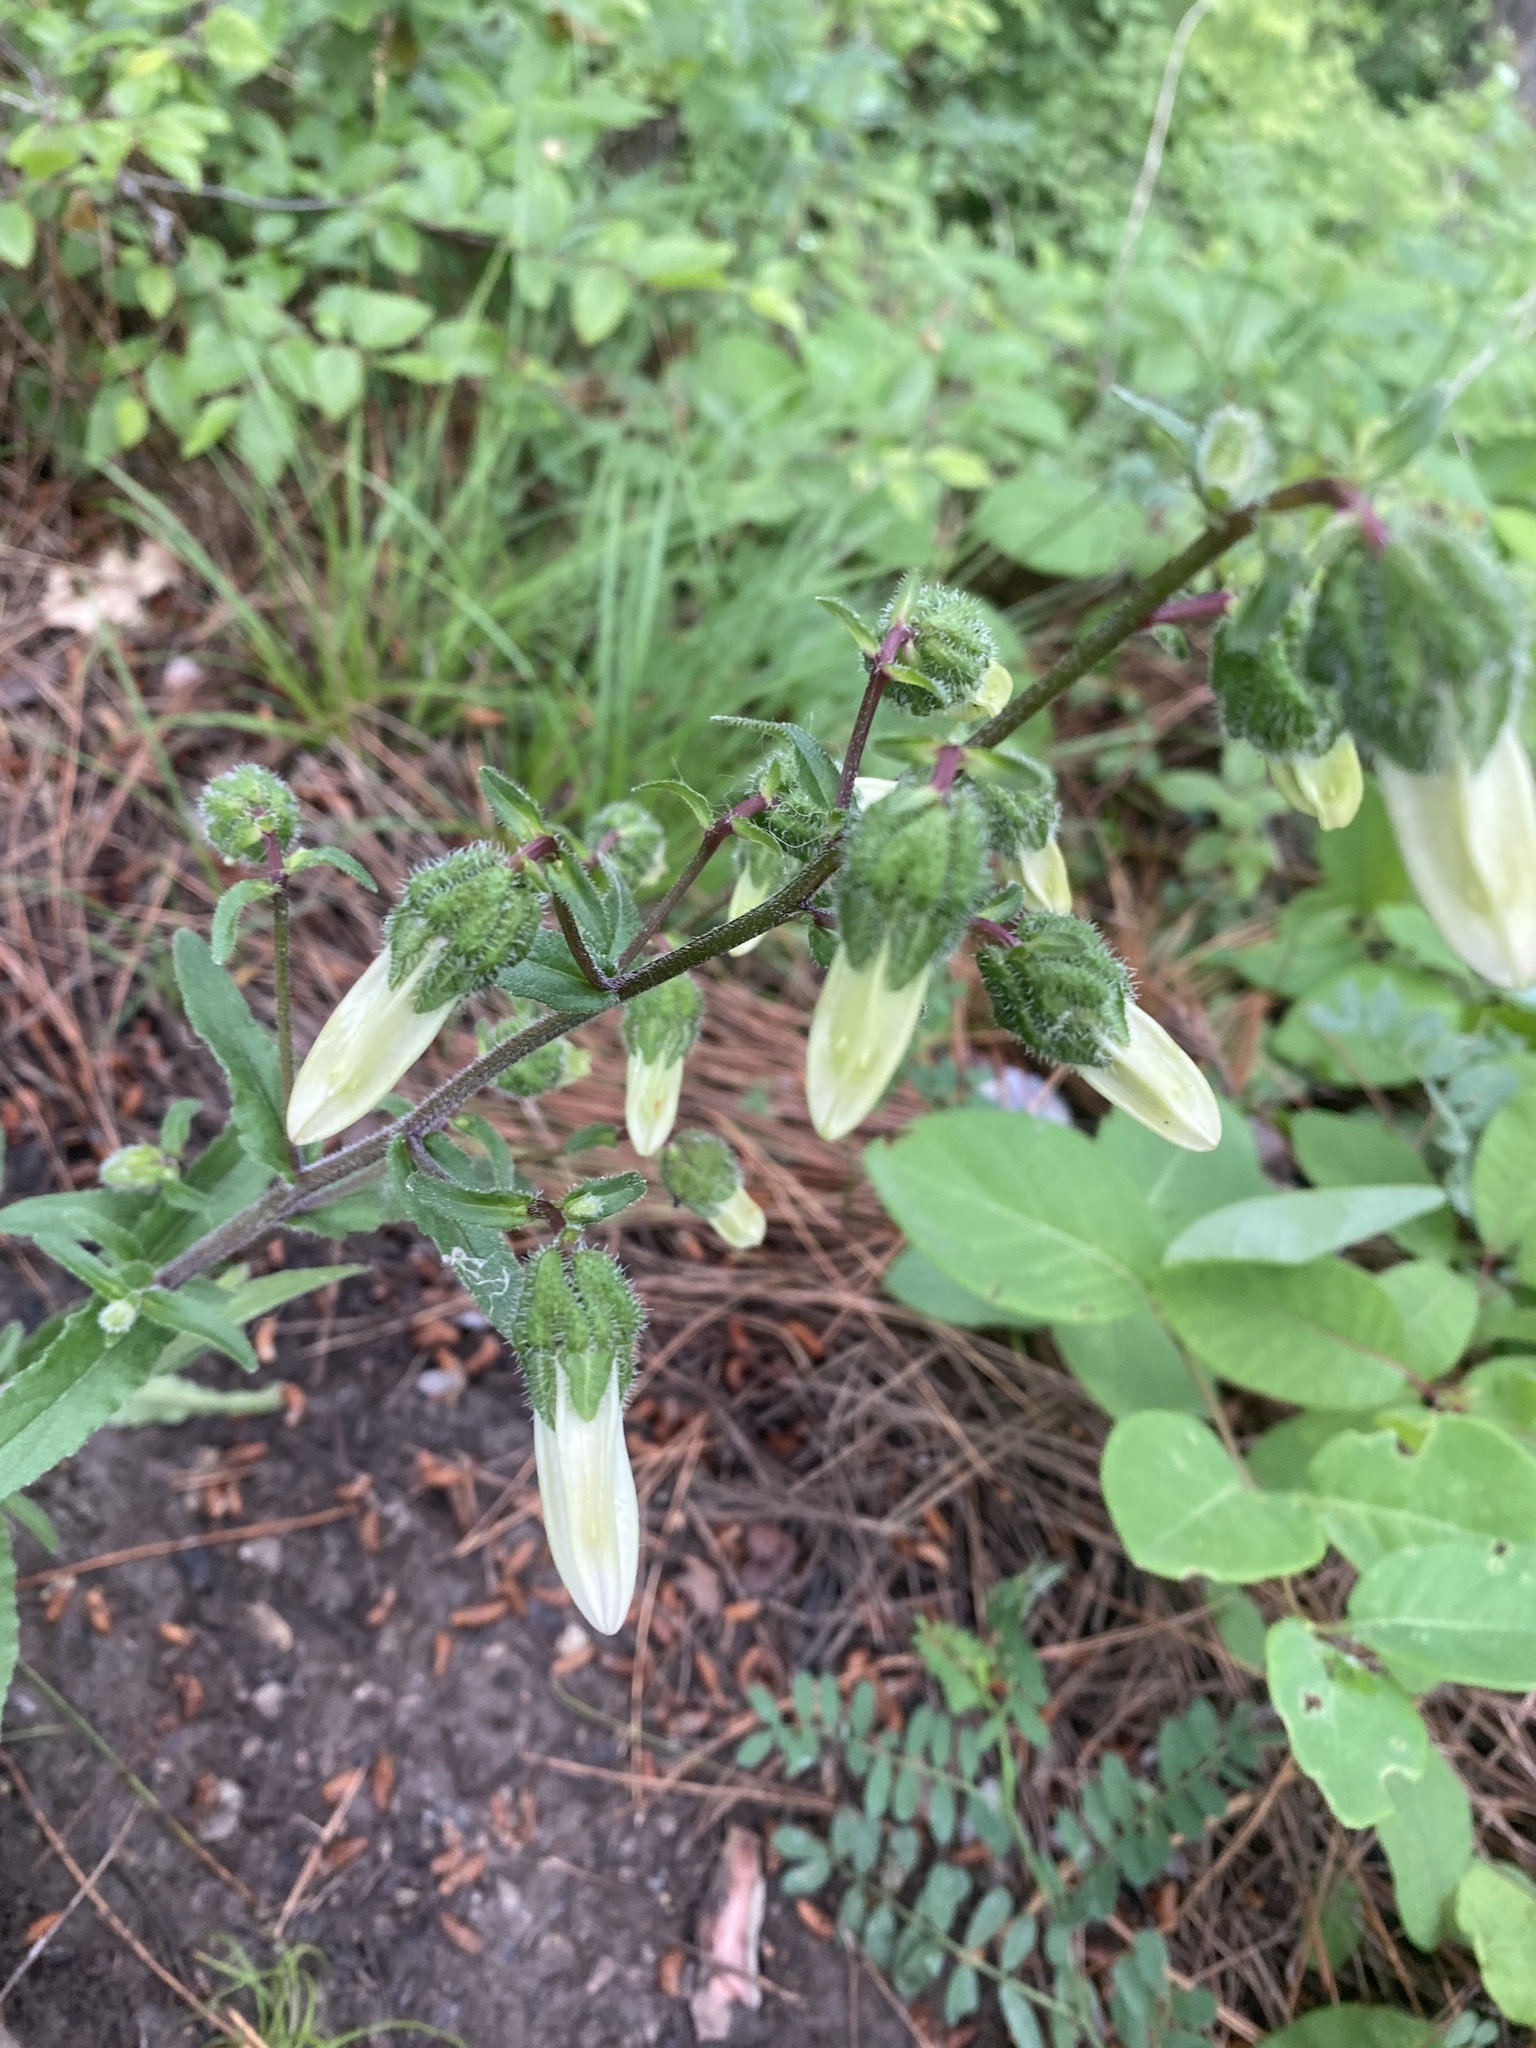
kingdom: Plantae
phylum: Tracheophyta
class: Magnoliopsida
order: Asterales
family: Campanulaceae
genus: Campanula
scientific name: Campanula komarovii
